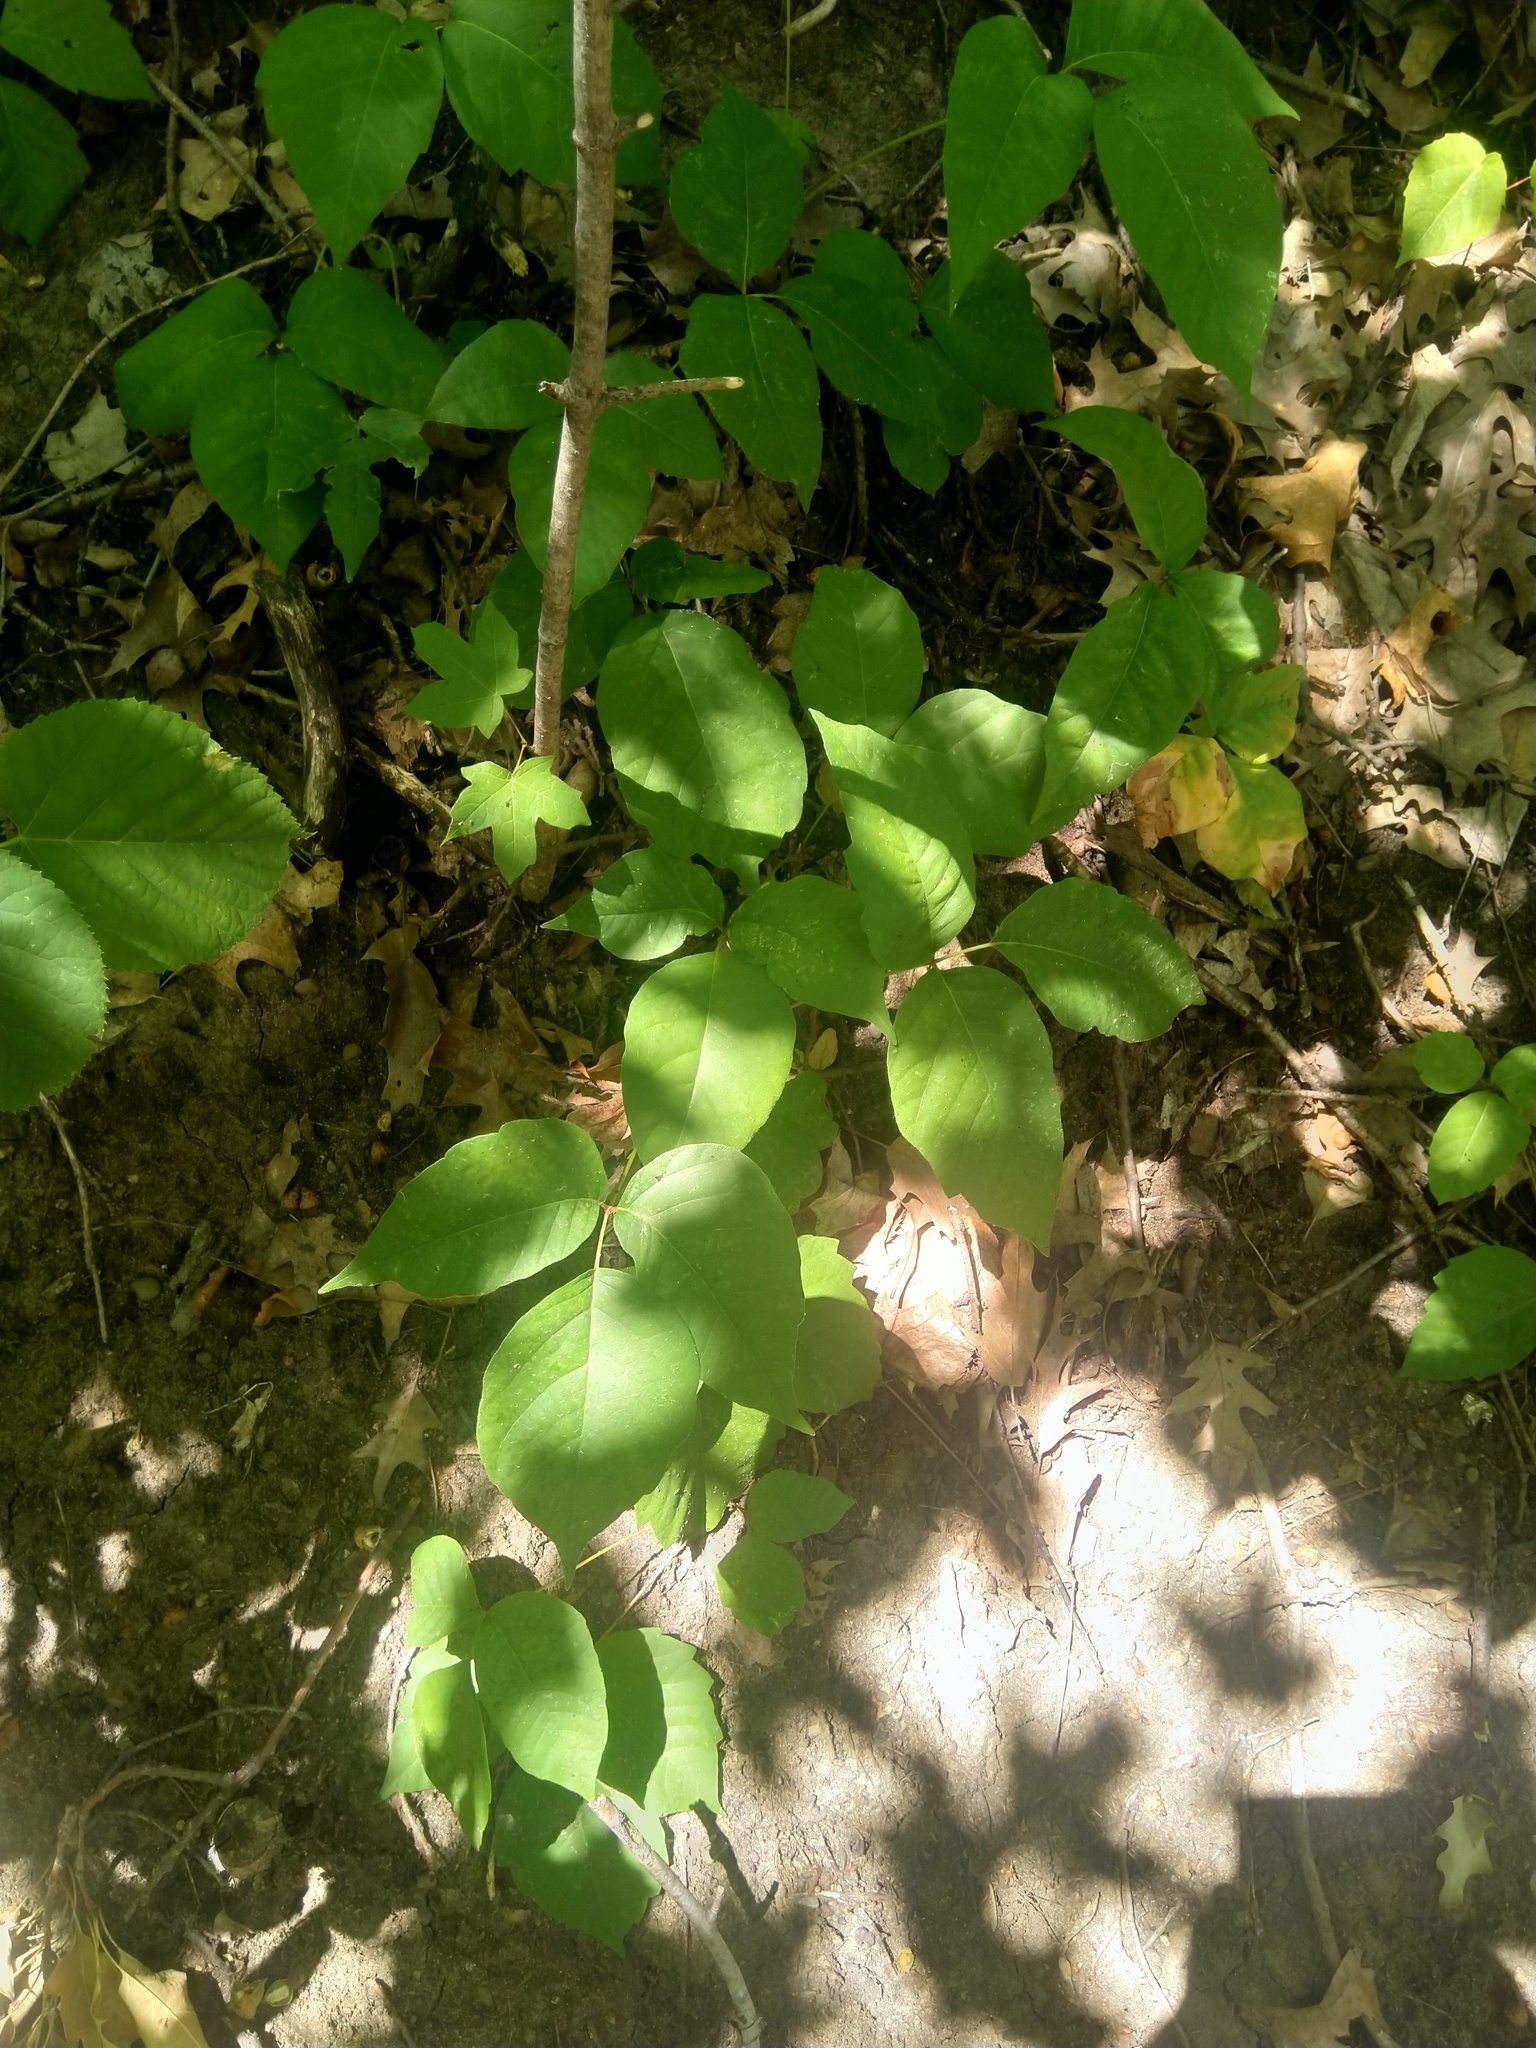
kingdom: Plantae
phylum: Tracheophyta
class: Magnoliopsida
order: Sapindales
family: Anacardiaceae
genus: Toxicodendron
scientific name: Toxicodendron rydbergii
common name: Rydberg's poison-ivy
